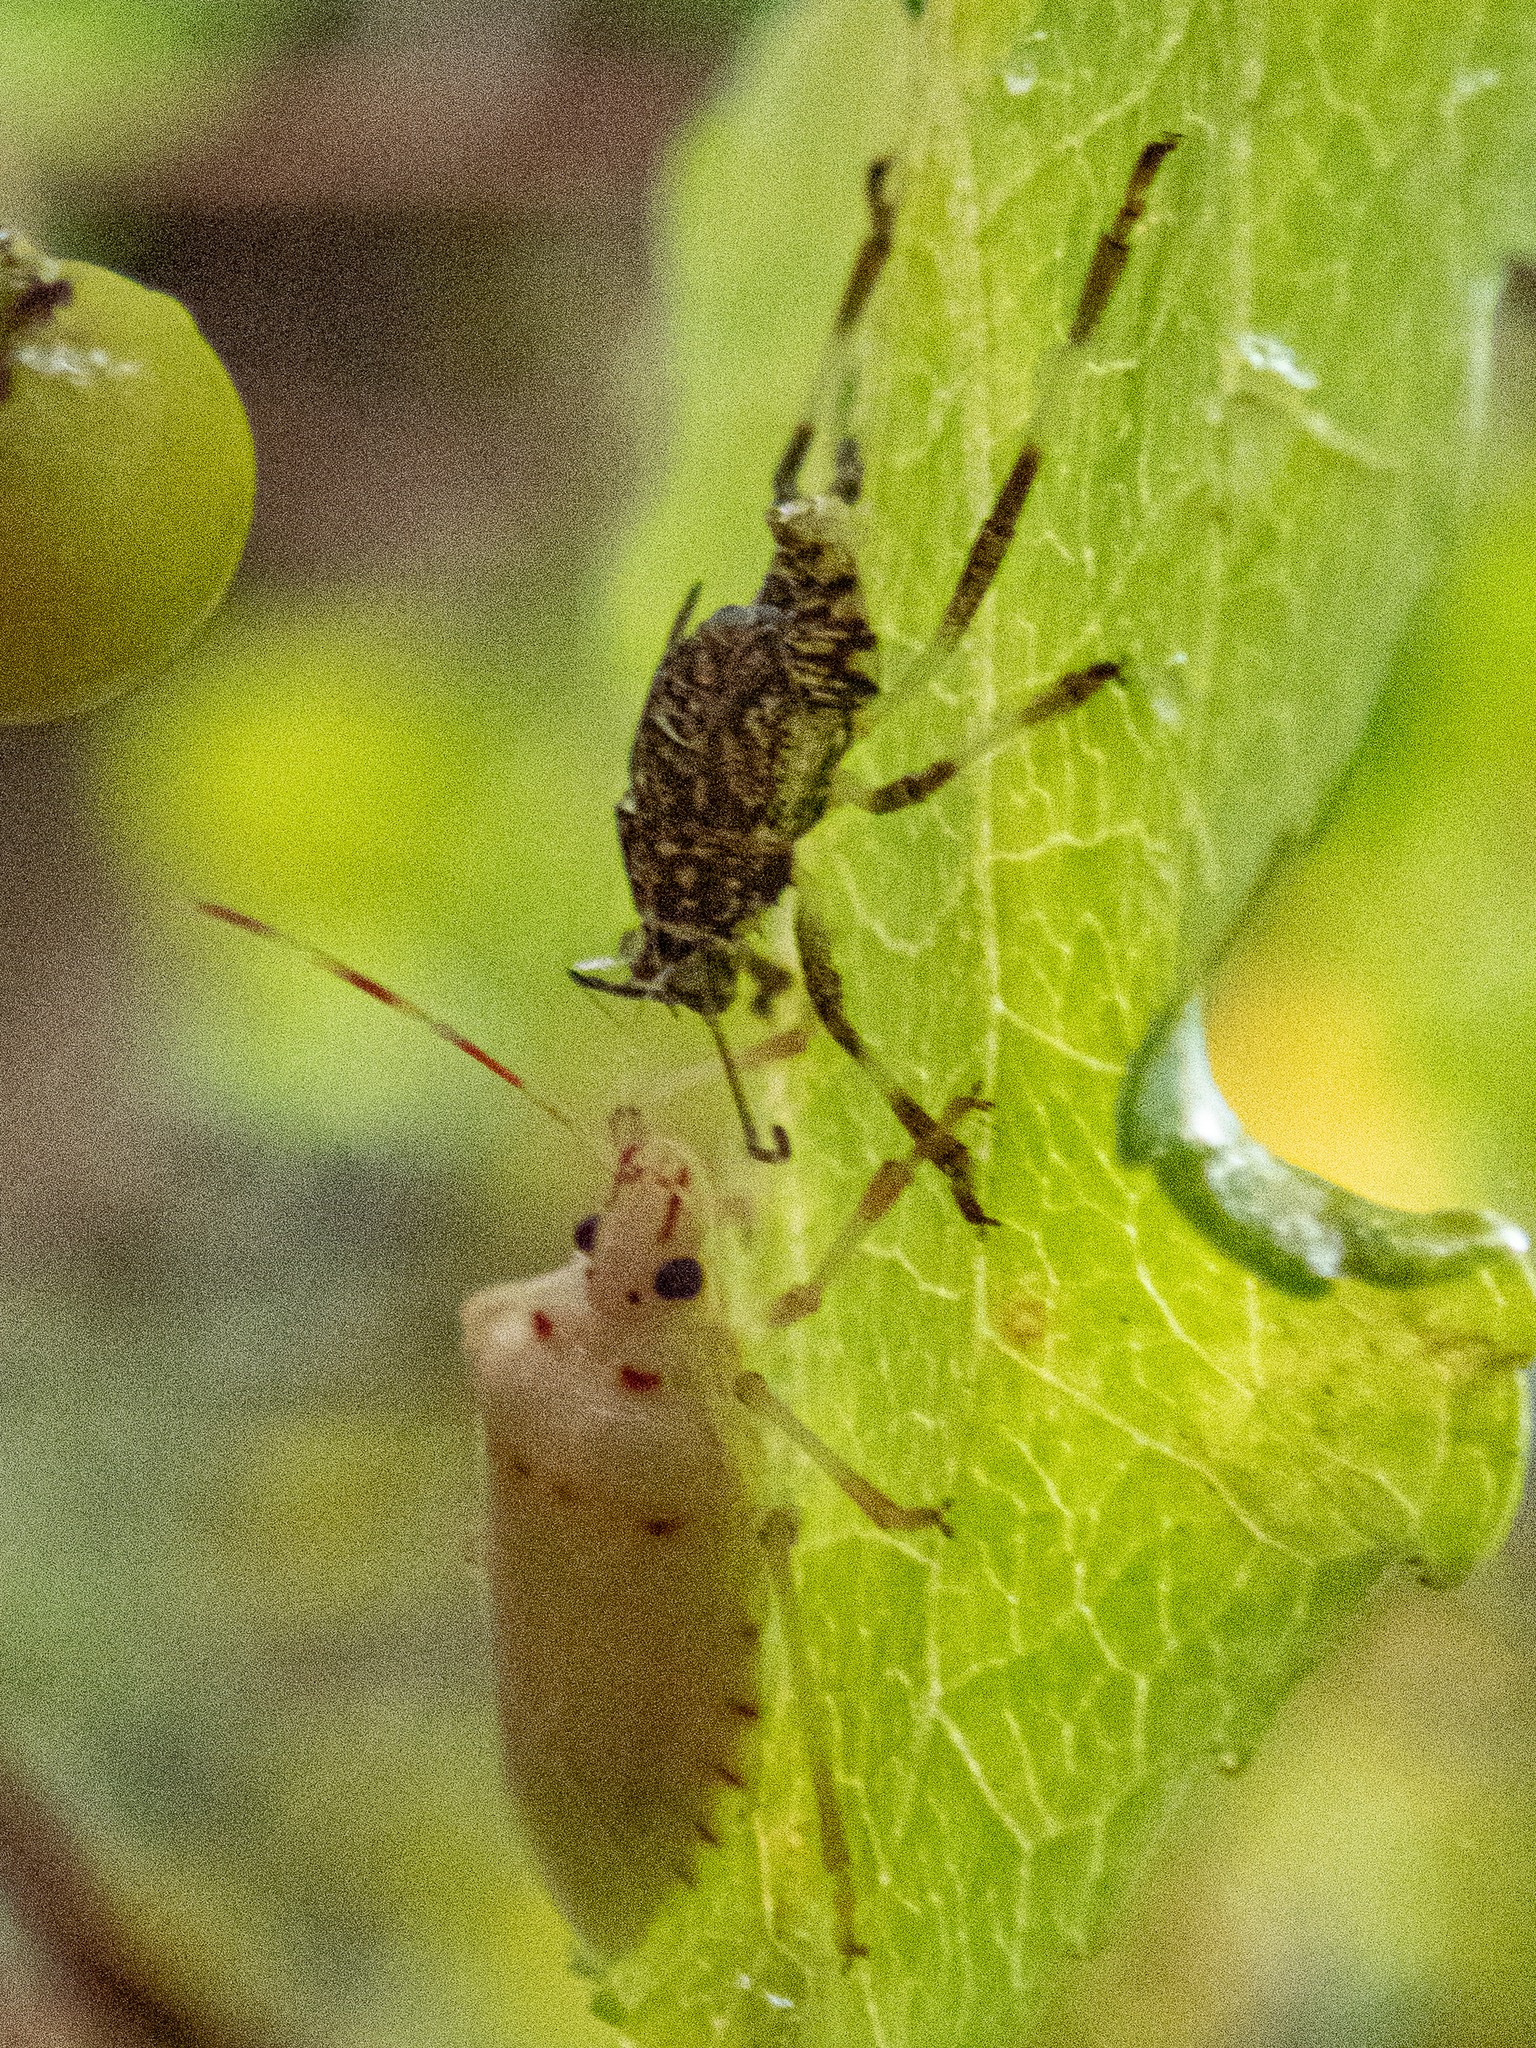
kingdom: Animalia
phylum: Arthropoda
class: Insecta
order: Hemiptera
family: Pentatomidae
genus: Halyomorpha
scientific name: Halyomorpha halys
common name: Brown marmorated stink bug
